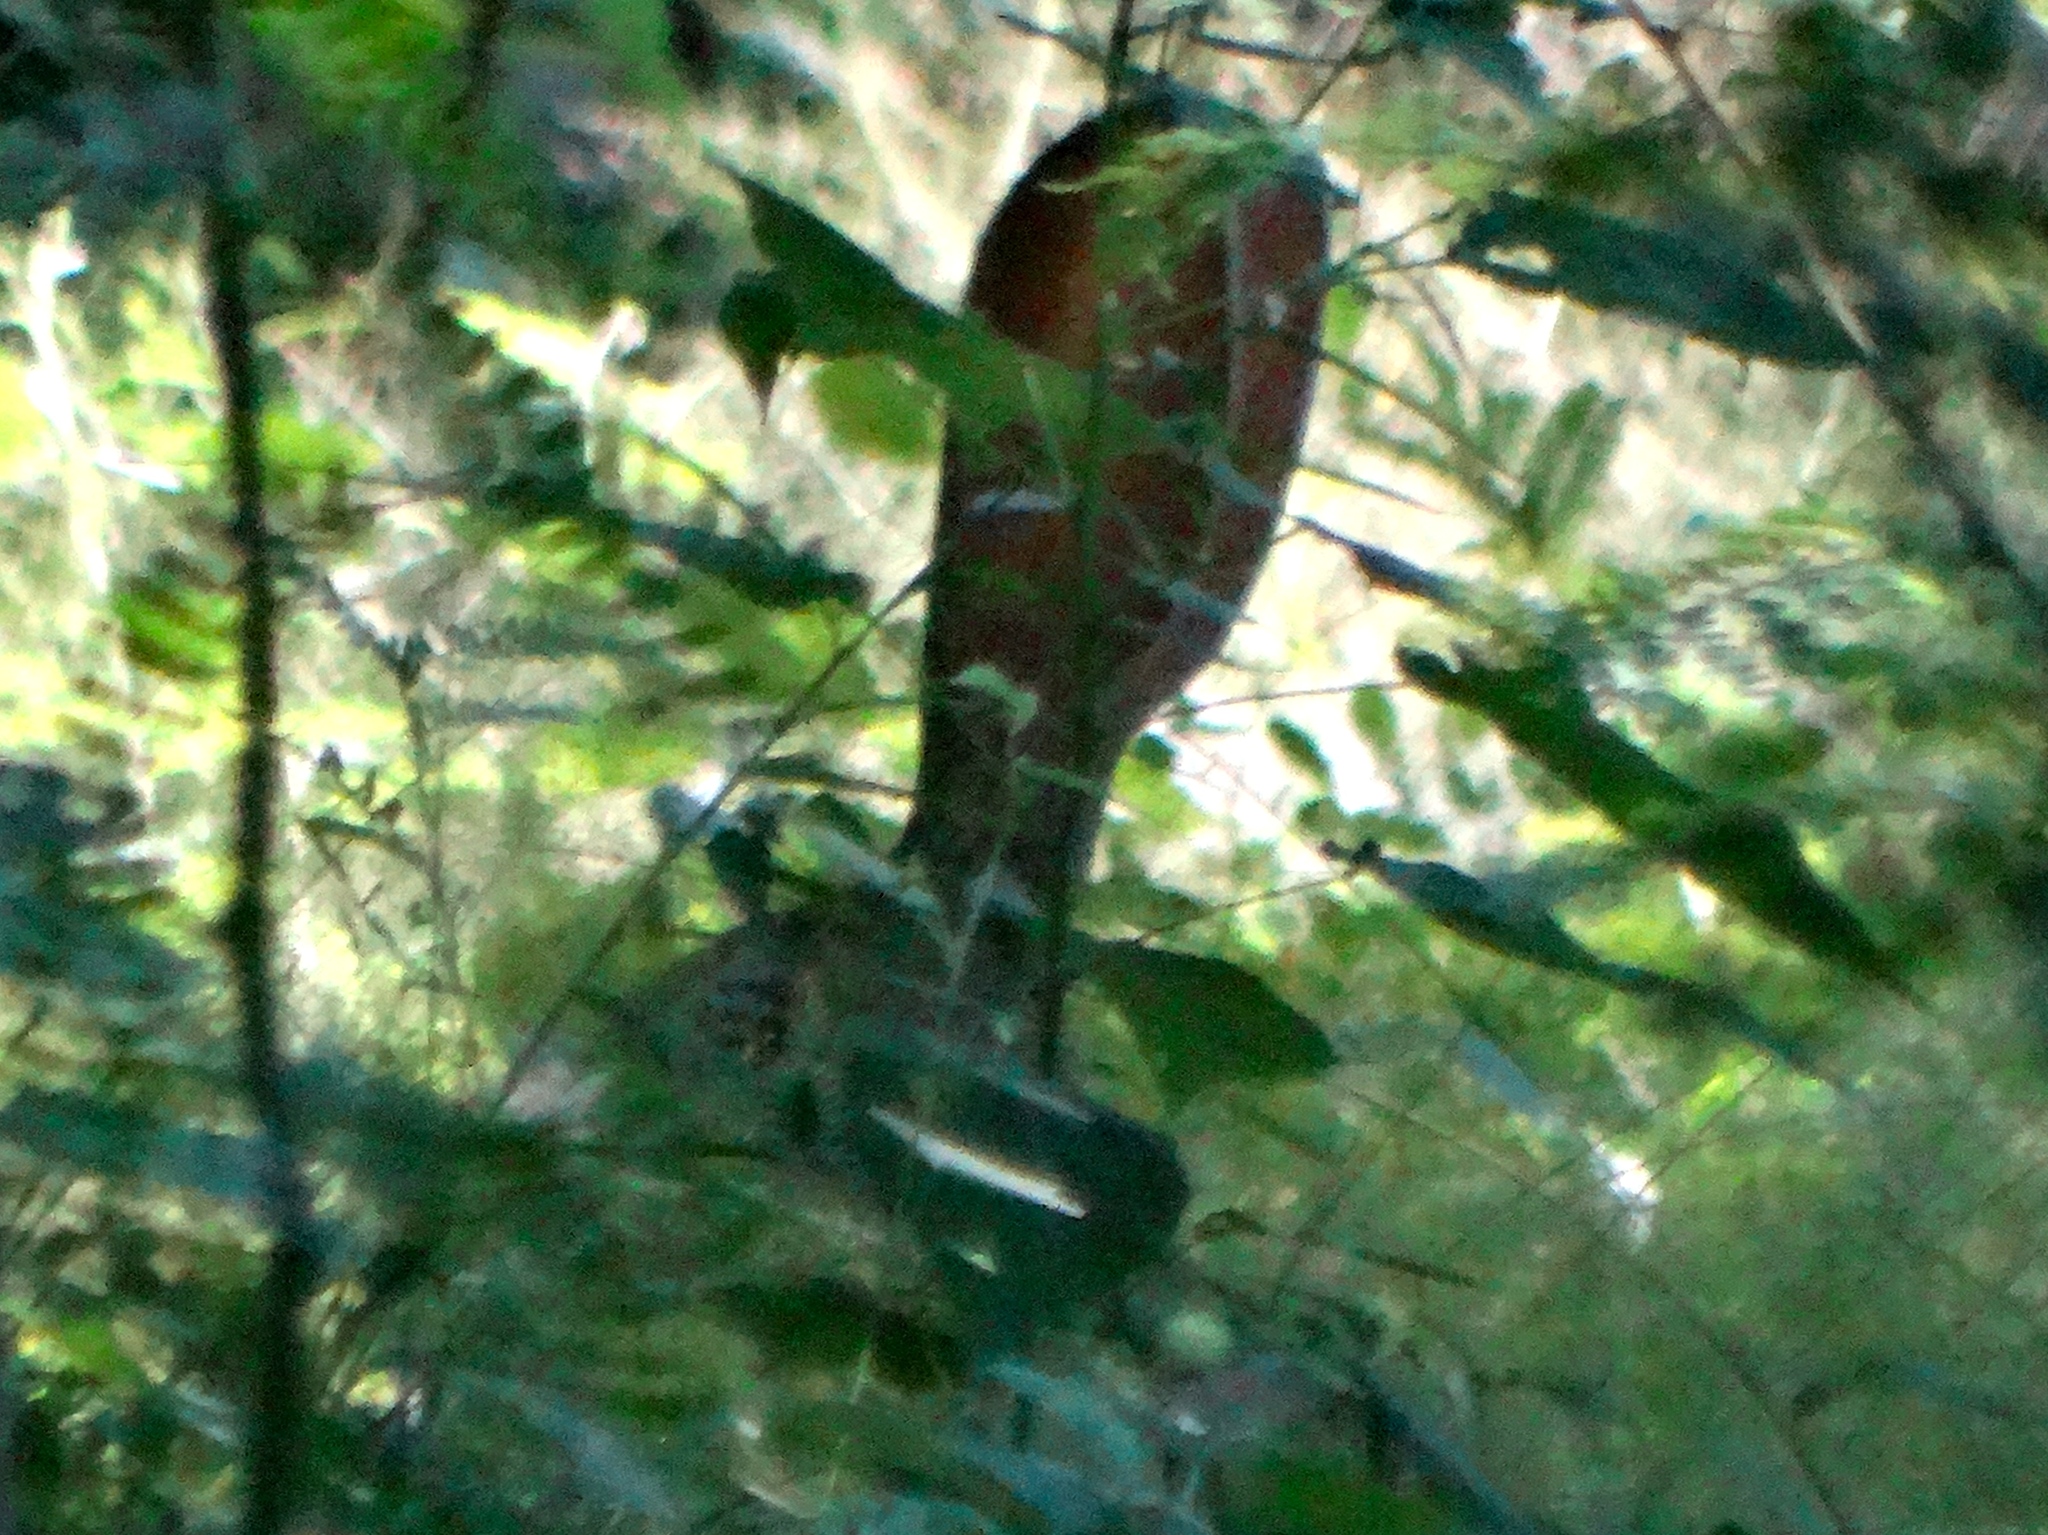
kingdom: Animalia
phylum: Chordata
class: Mammalia
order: Lagomorpha
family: Leporidae
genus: Lepus
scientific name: Lepus alleni
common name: Antelope jackrabbit
